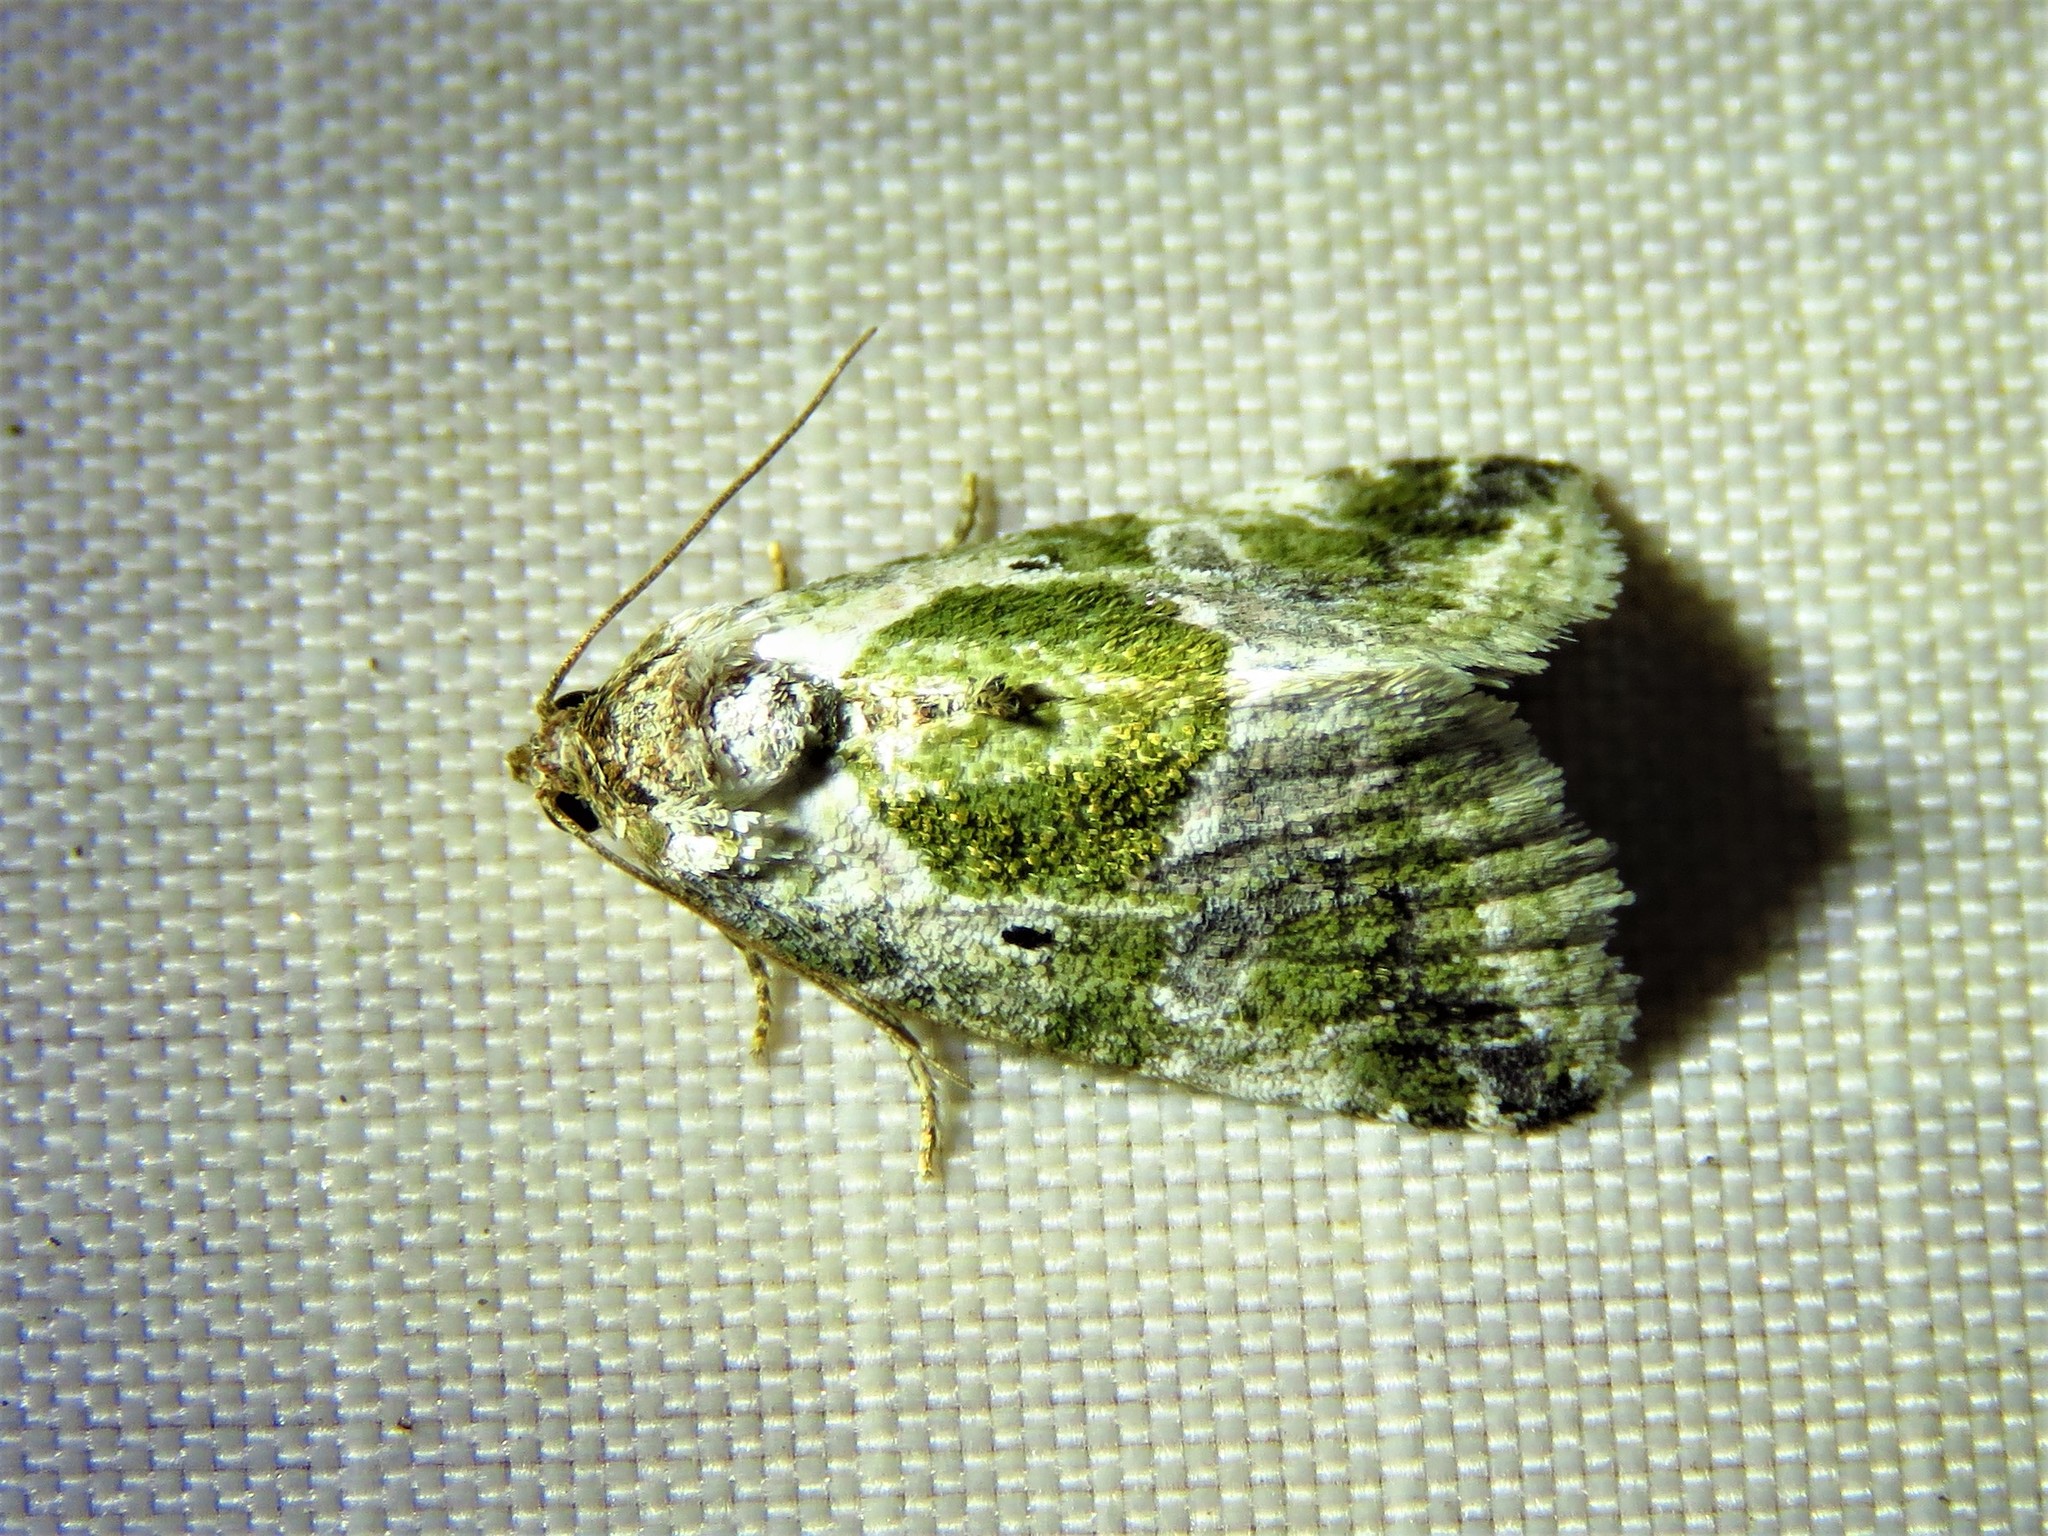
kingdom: Animalia
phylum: Arthropoda
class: Insecta
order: Lepidoptera
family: Noctuidae
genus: Maliattha
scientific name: Maliattha synochitis
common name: Black-dotted glyph
